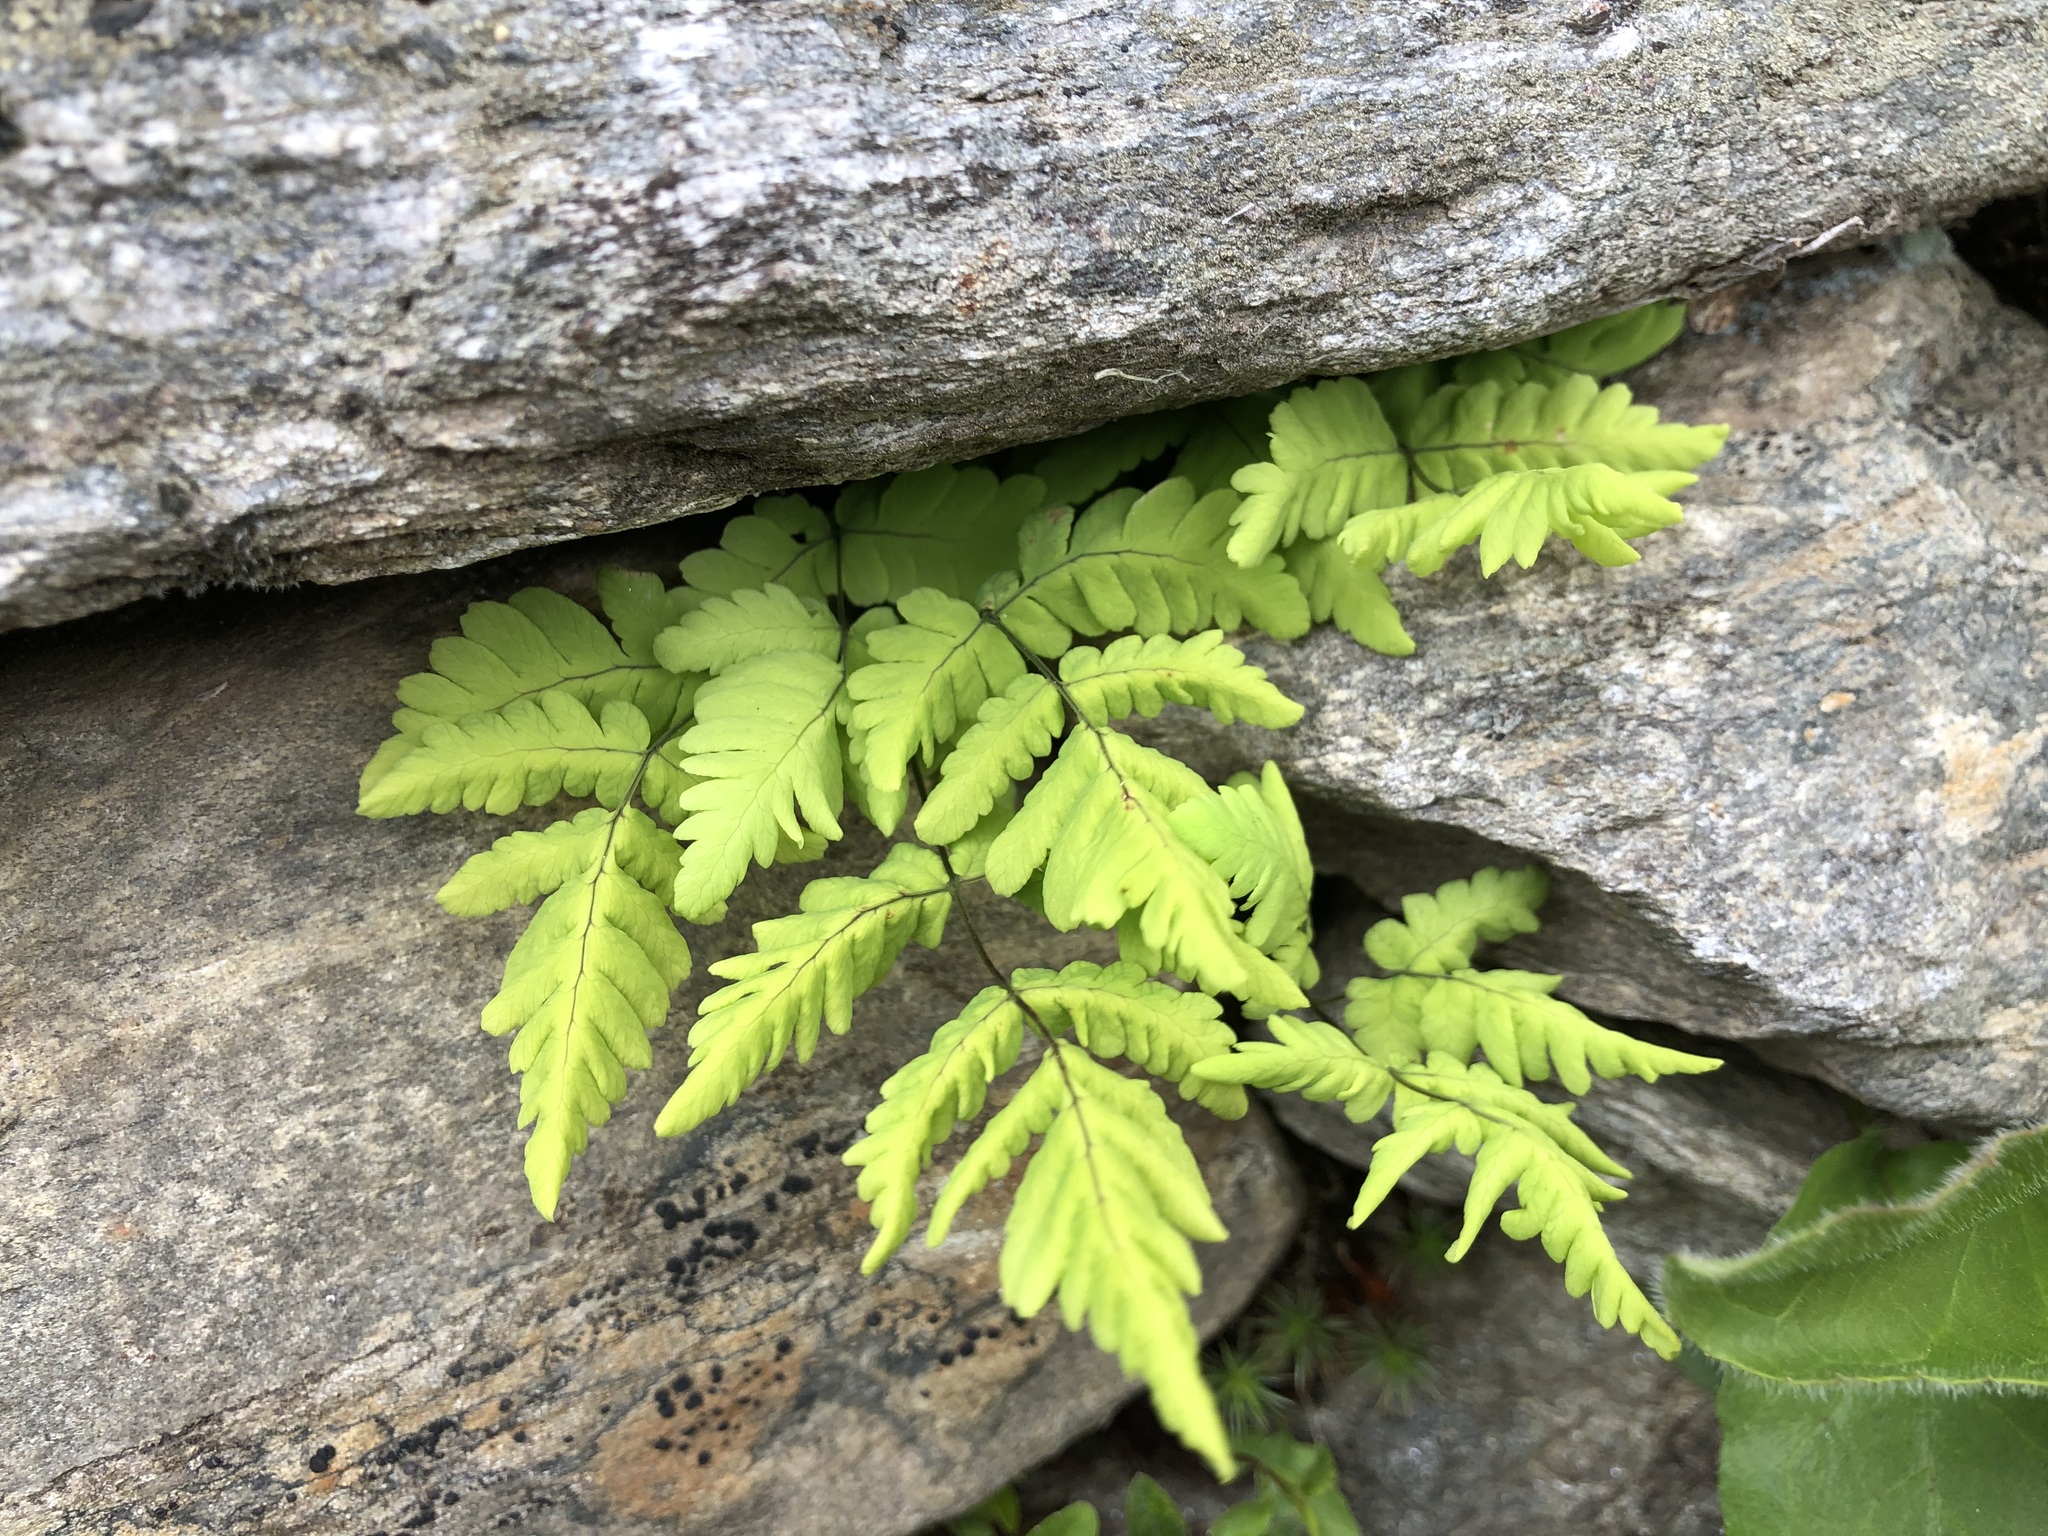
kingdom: Plantae
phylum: Tracheophyta
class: Polypodiopsida
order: Polypodiales
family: Cystopteridaceae
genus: Gymnocarpium
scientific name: Gymnocarpium dryopteris
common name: Oak fern
